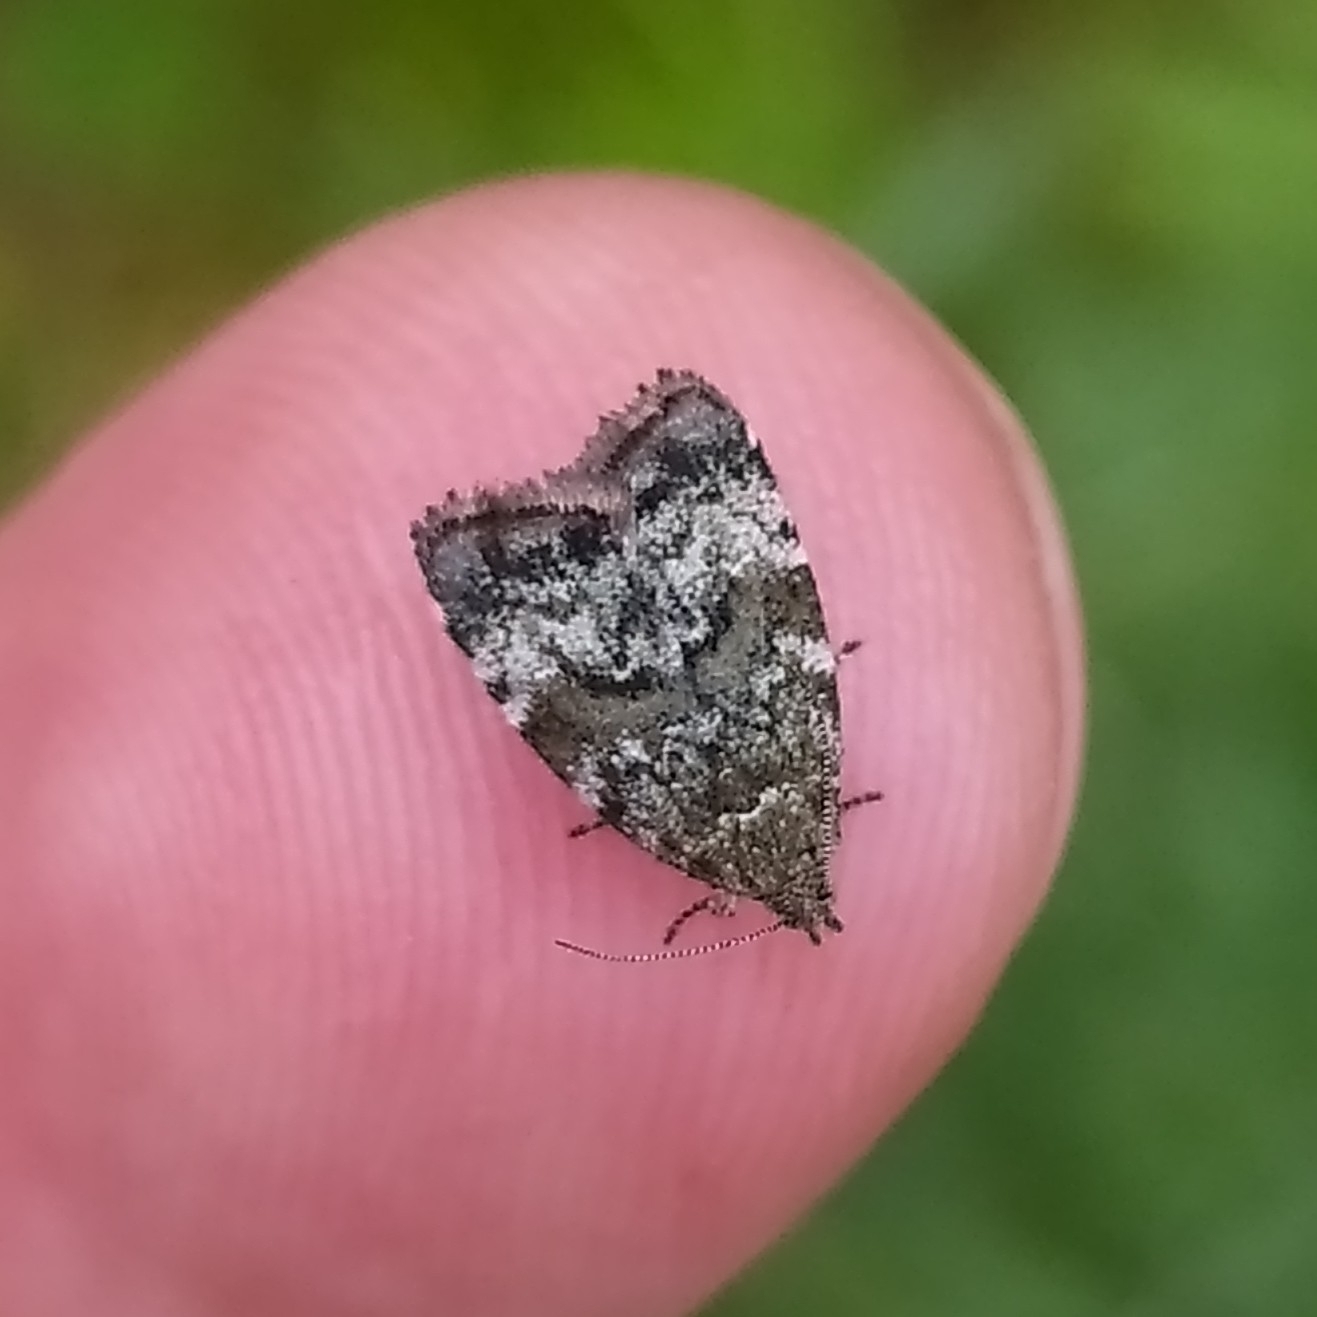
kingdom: Animalia
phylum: Arthropoda
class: Insecta
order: Lepidoptera
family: Choreutidae
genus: Choreutis
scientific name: Choreutis diana
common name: Inverness twitcher
